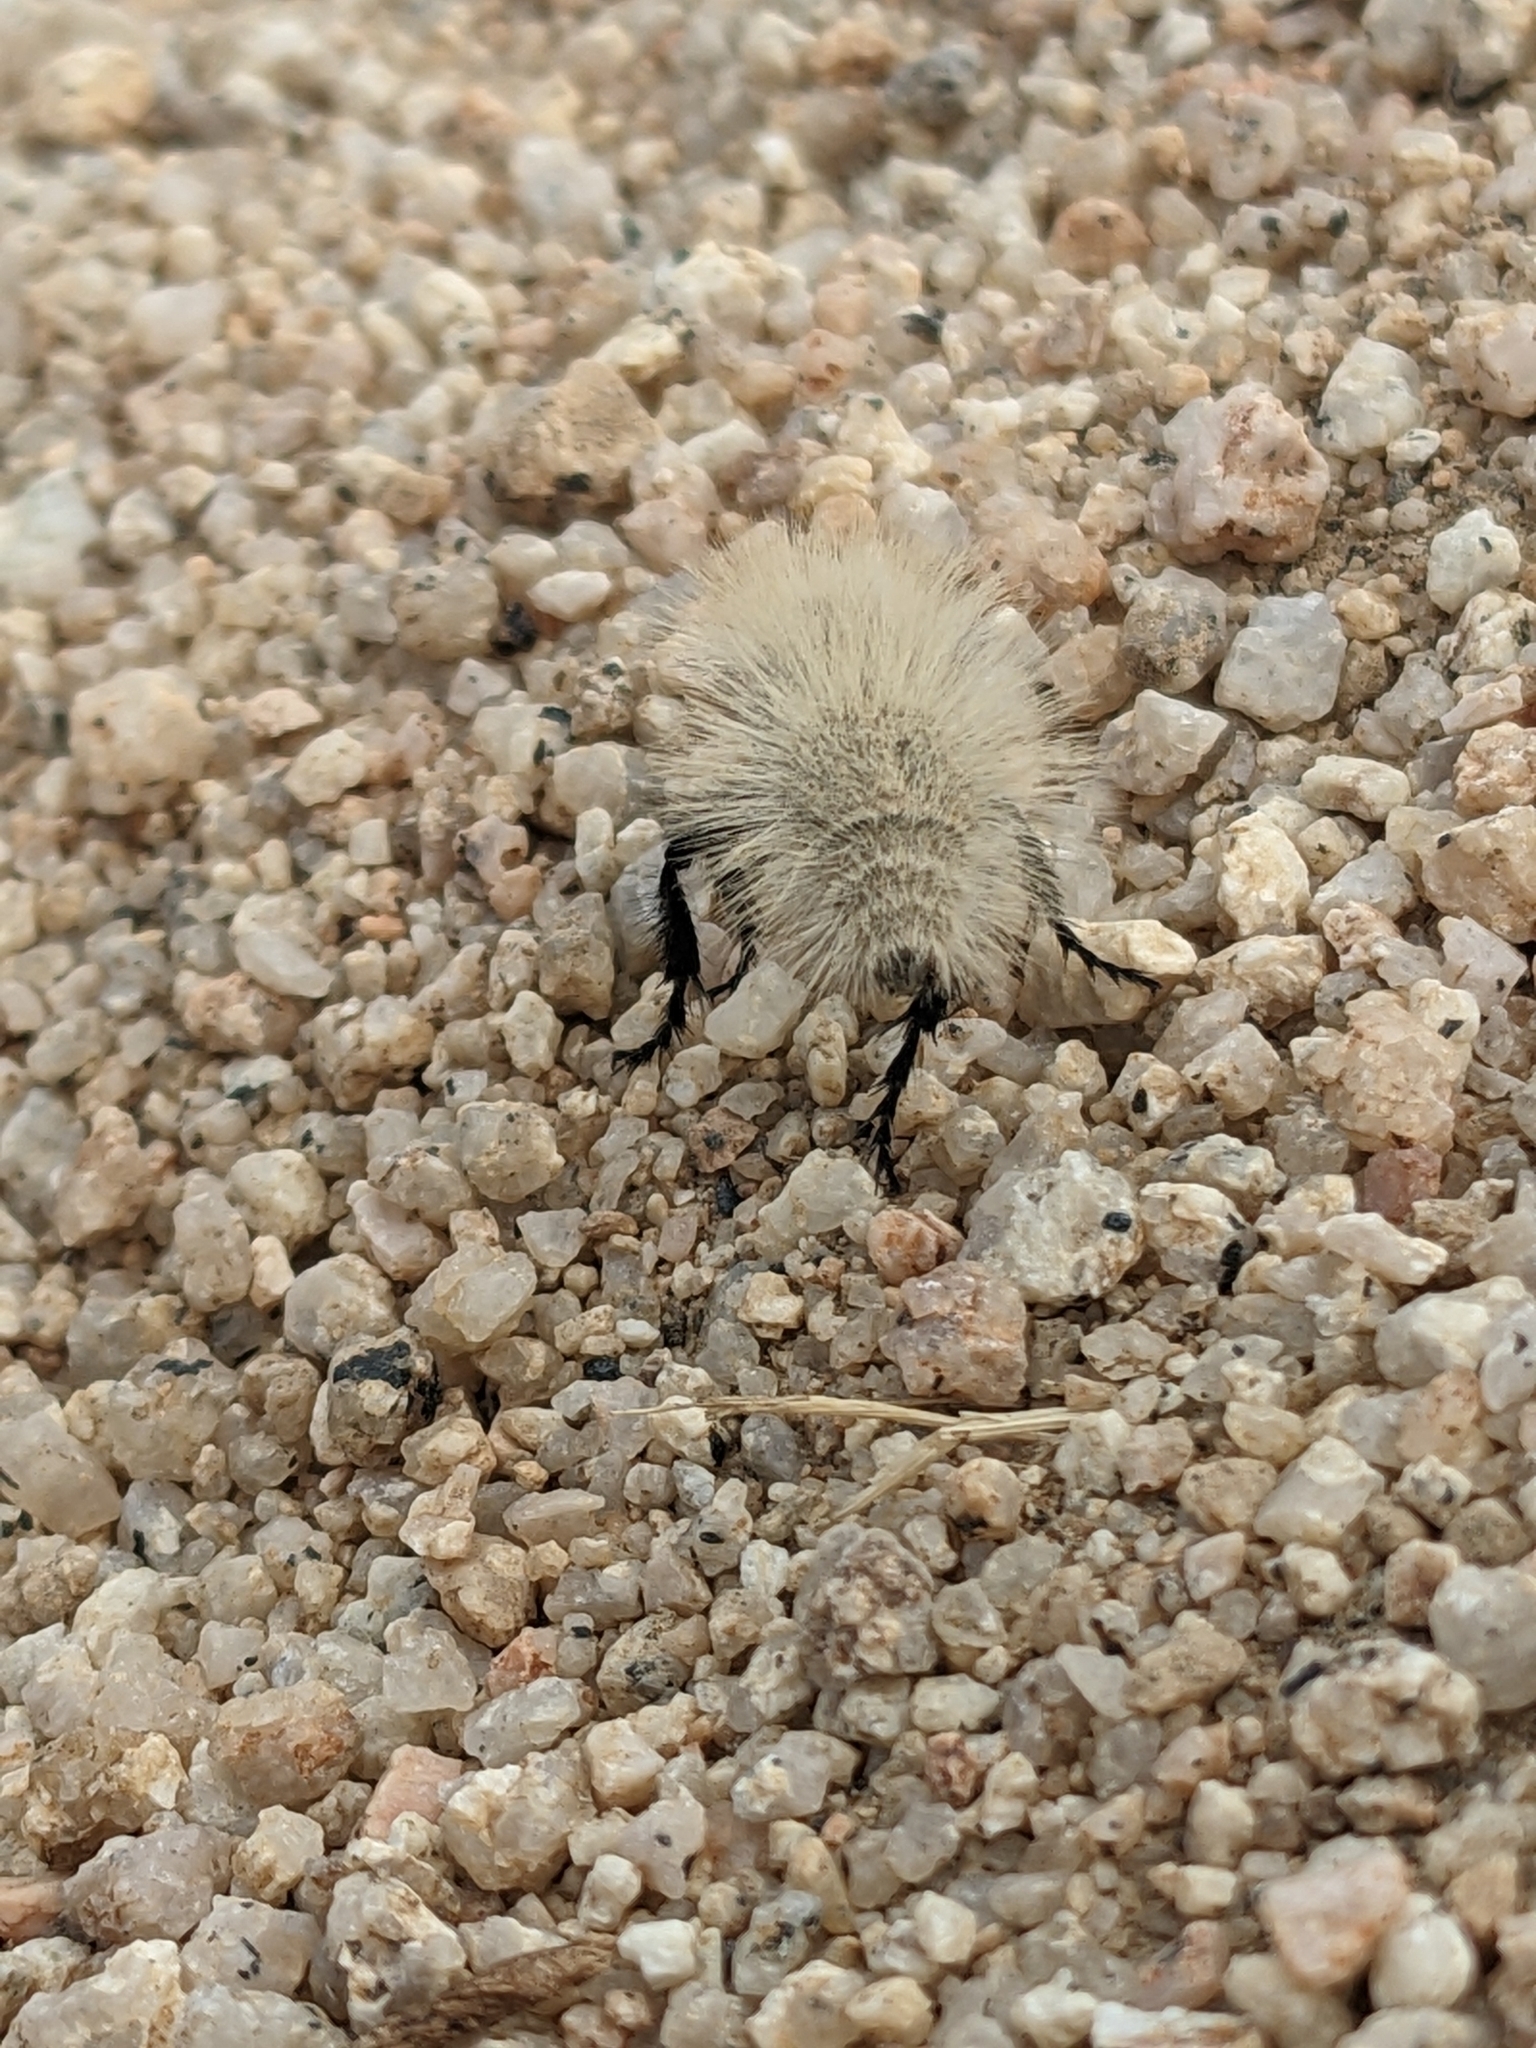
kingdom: Animalia
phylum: Arthropoda
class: Insecta
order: Hymenoptera
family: Mutillidae
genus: Dasymutilla
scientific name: Dasymutilla
